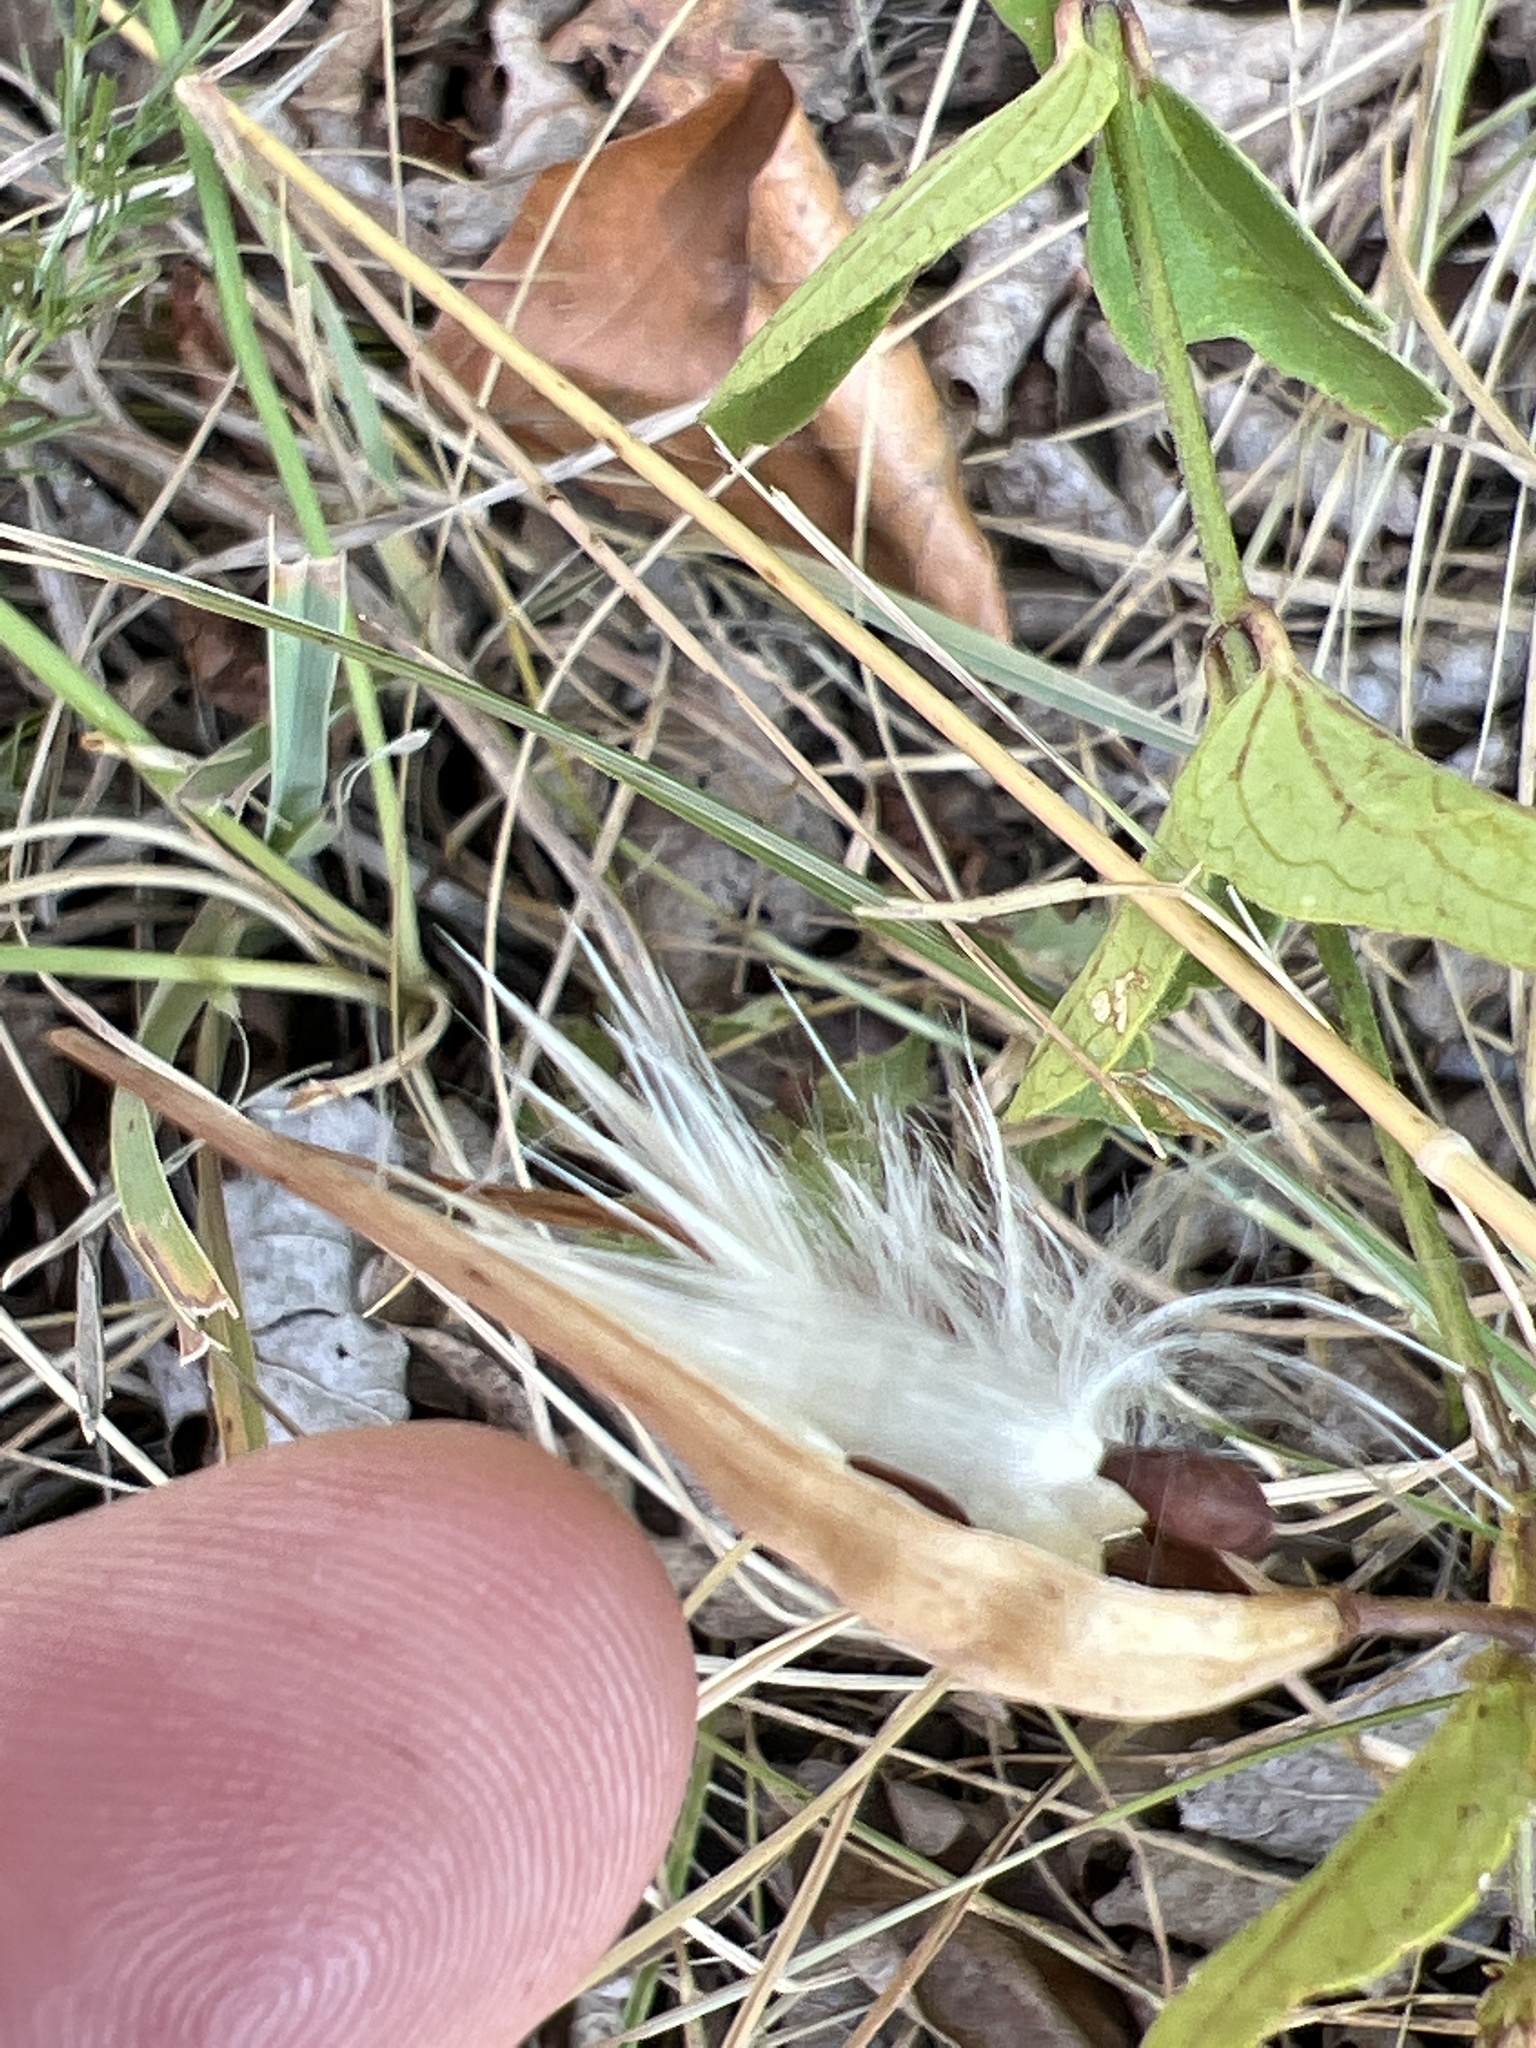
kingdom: Plantae
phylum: Tracheophyta
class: Magnoliopsida
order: Gentianales
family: Apocynaceae
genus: Vincetoxicum
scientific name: Vincetoxicum hirundinaria
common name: White swallowwort
